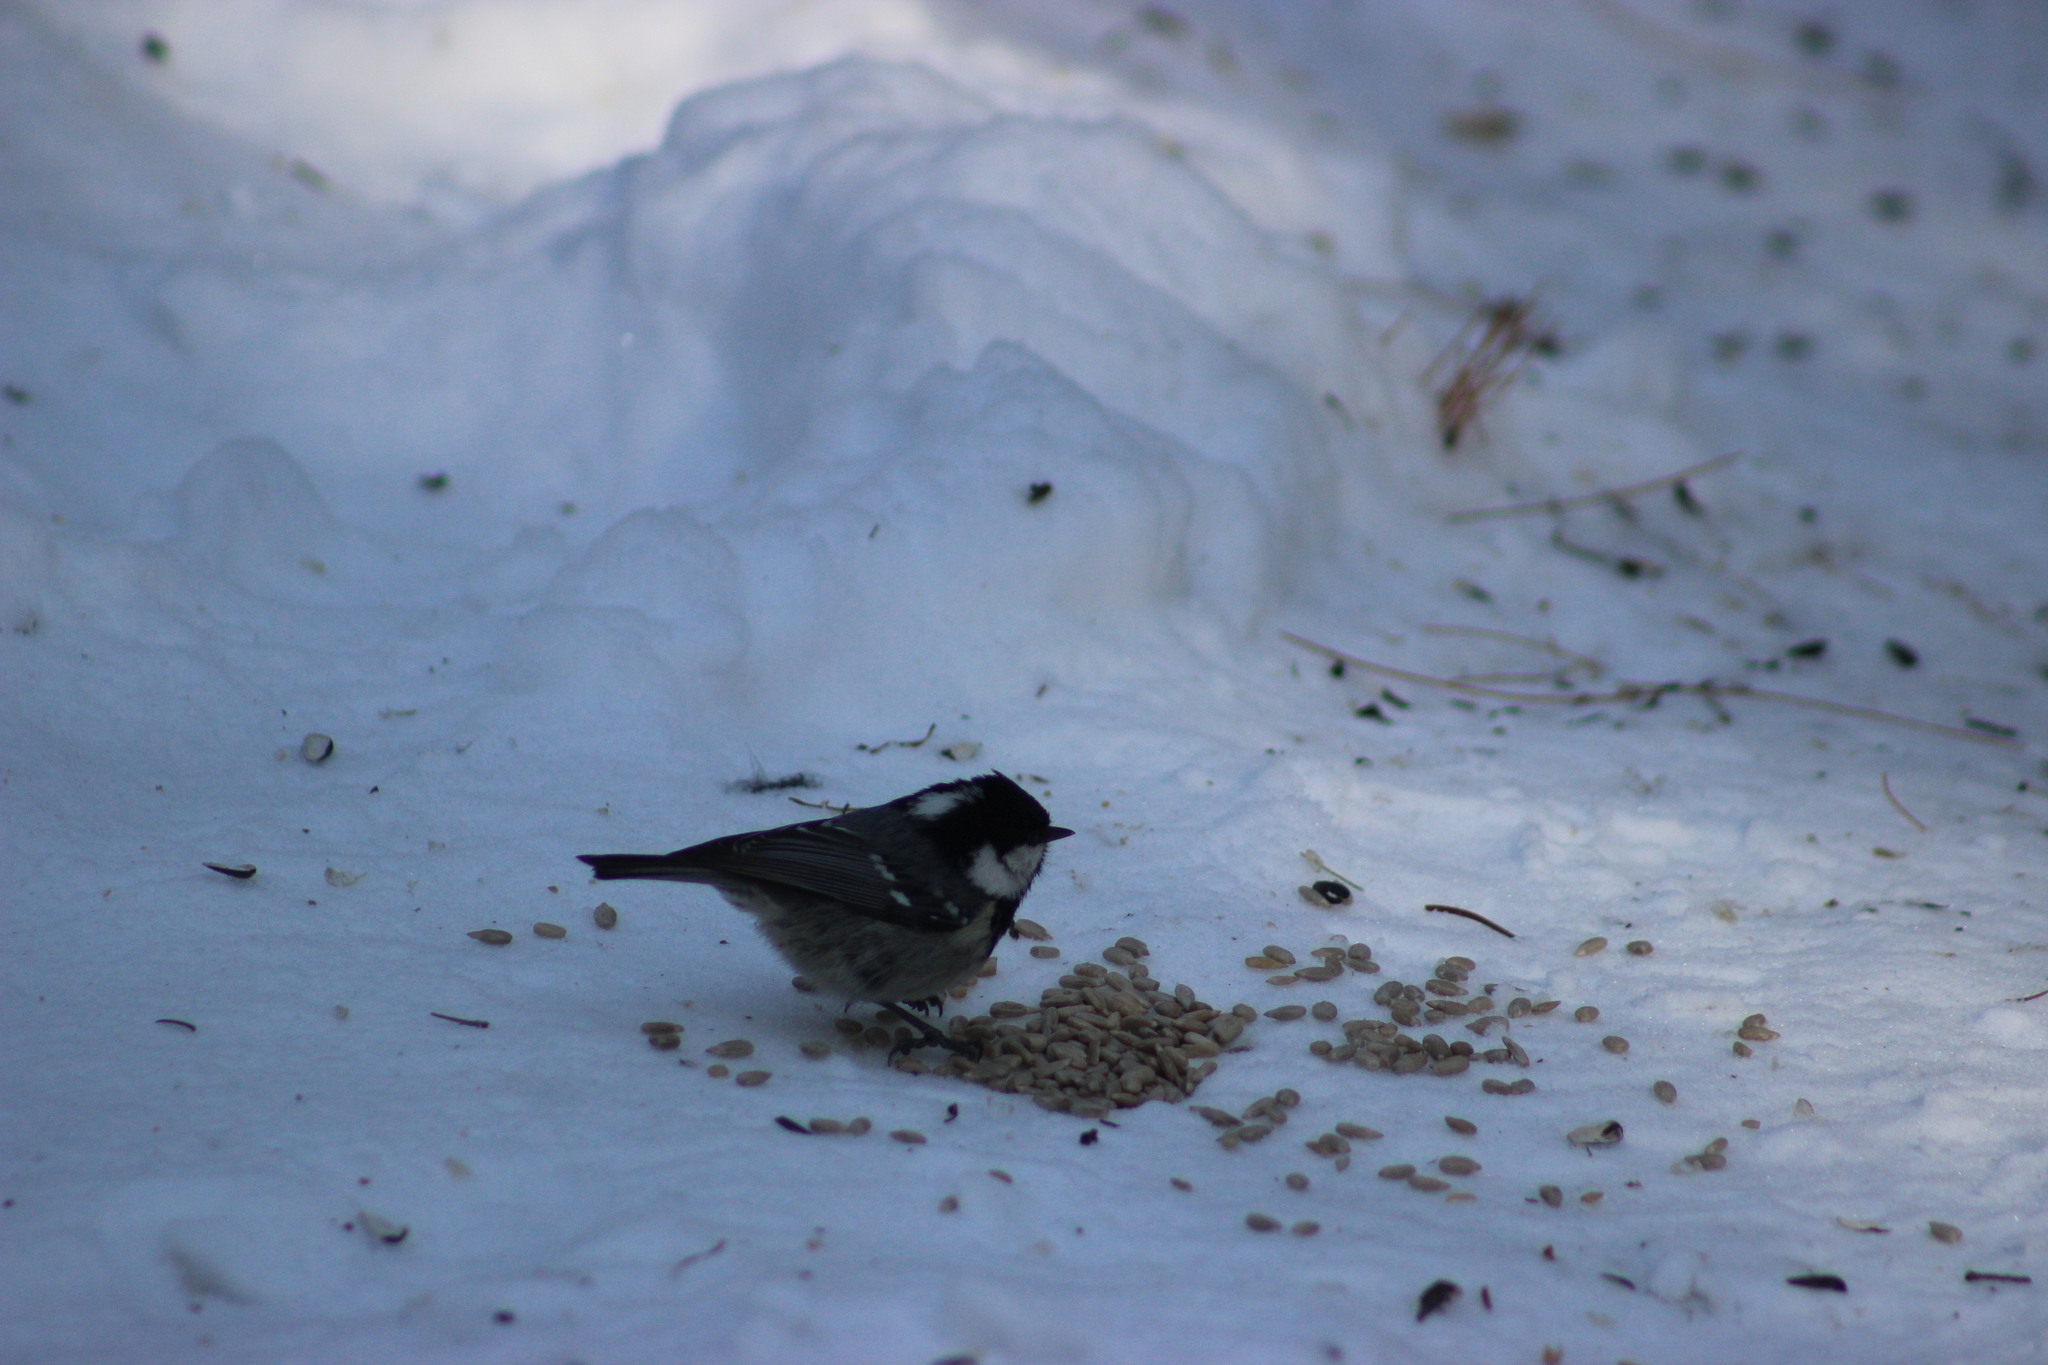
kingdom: Animalia
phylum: Chordata
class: Aves
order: Passeriformes
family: Paridae
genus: Periparus
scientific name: Periparus ater
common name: Coal tit
